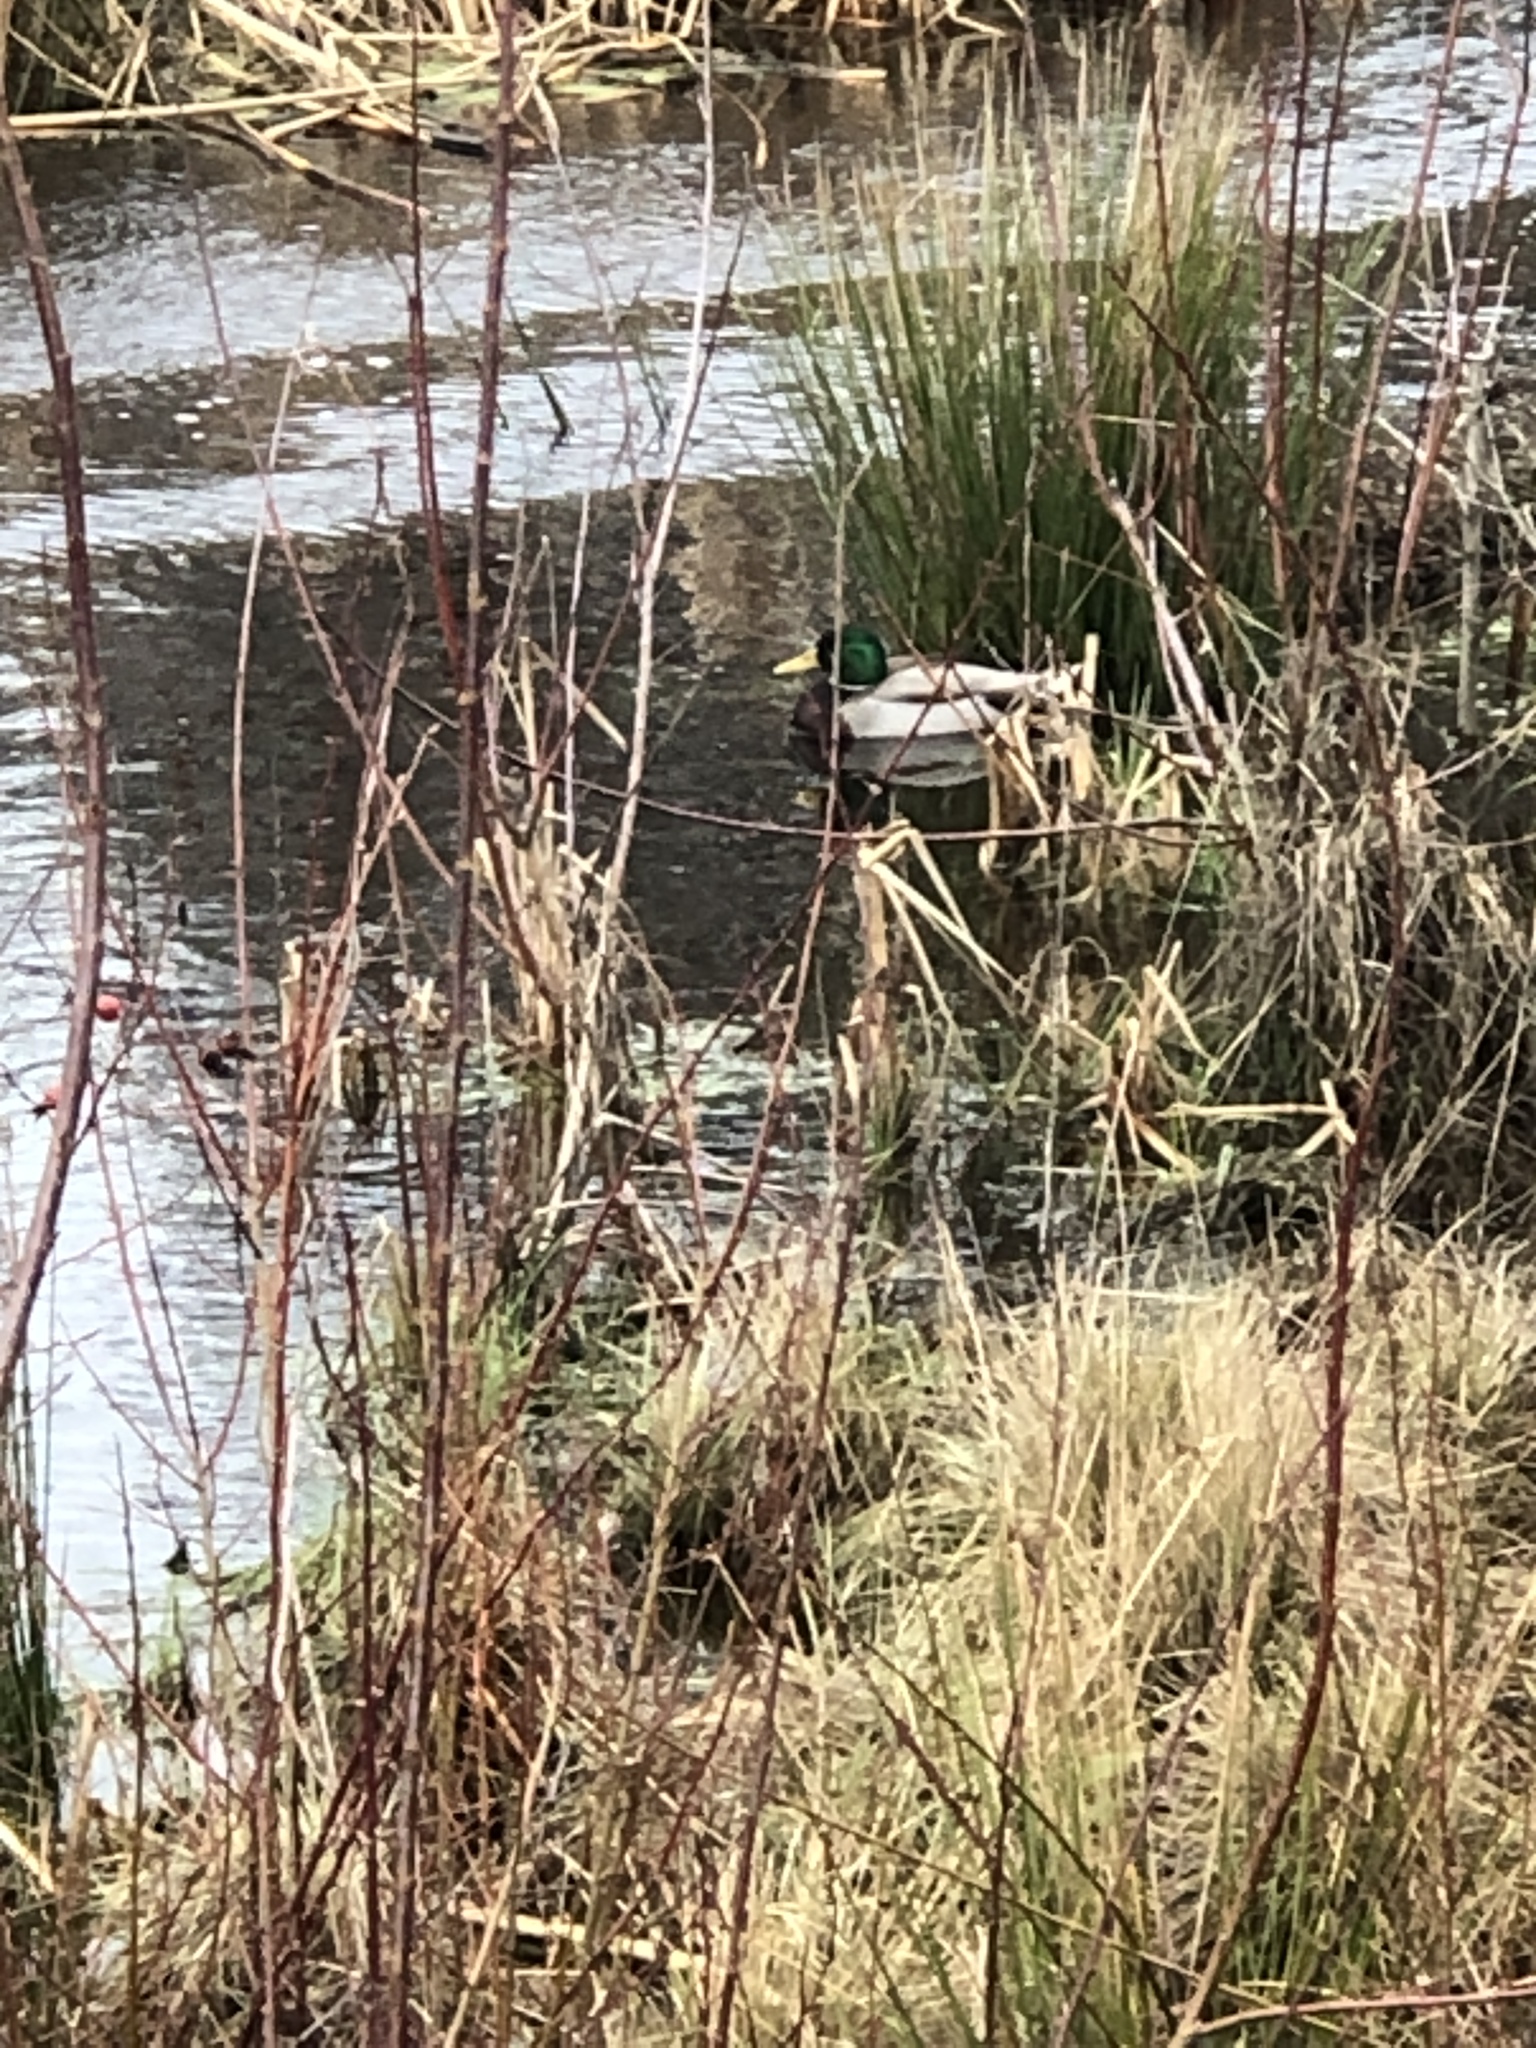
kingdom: Animalia
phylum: Chordata
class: Aves
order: Anseriformes
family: Anatidae
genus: Anas
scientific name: Anas platyrhynchos
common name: Mallard
